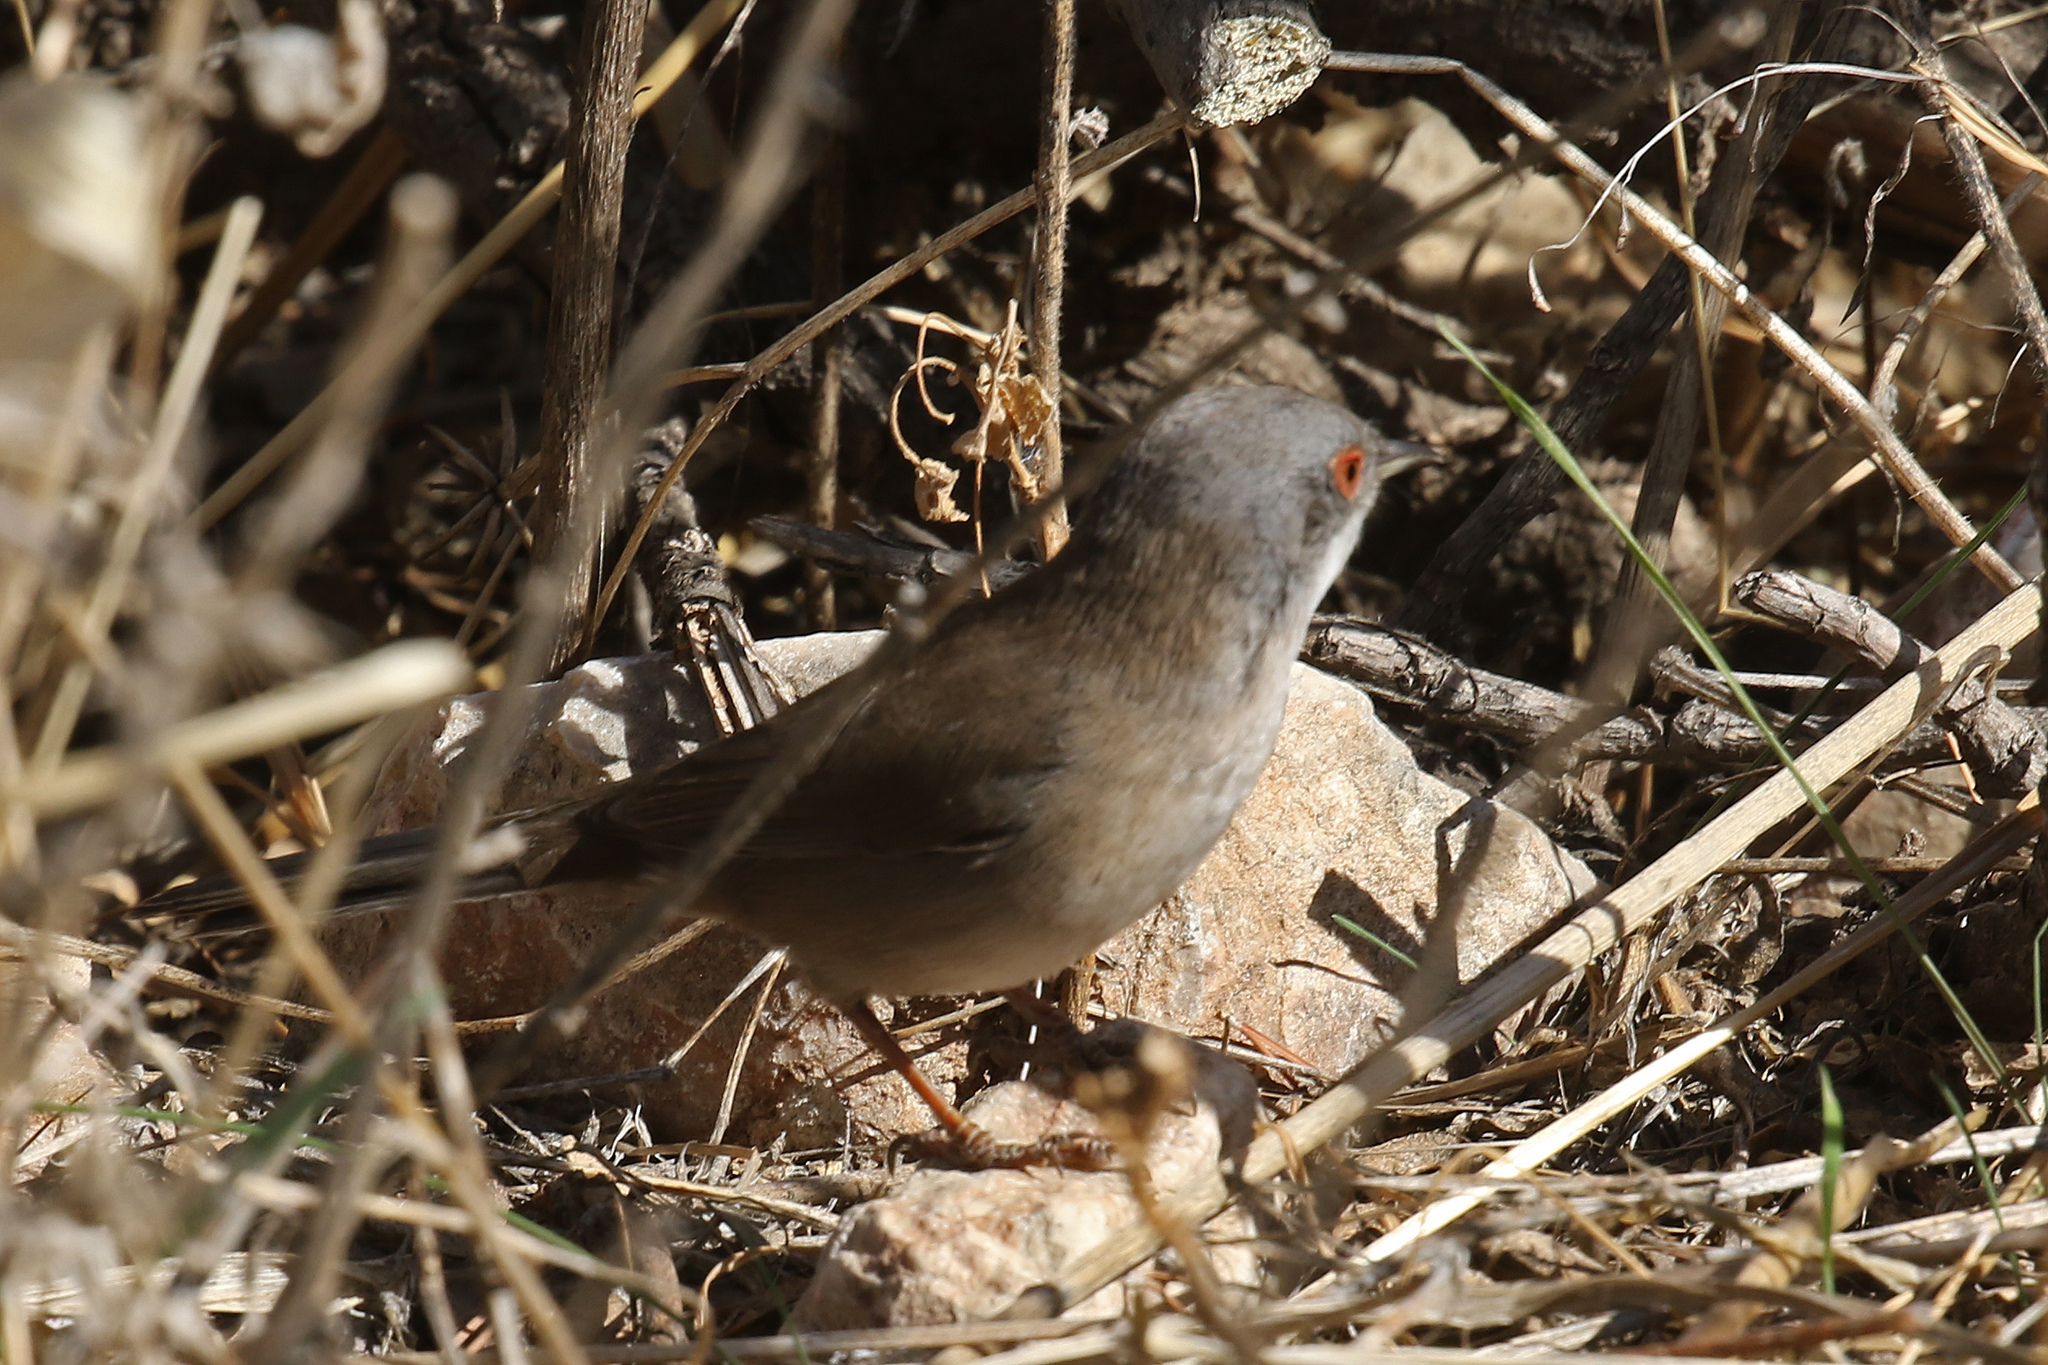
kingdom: Animalia
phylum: Chordata
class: Aves
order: Passeriformes
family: Sylviidae
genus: Curruca
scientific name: Curruca melanocephala
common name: Sardinian warbler
